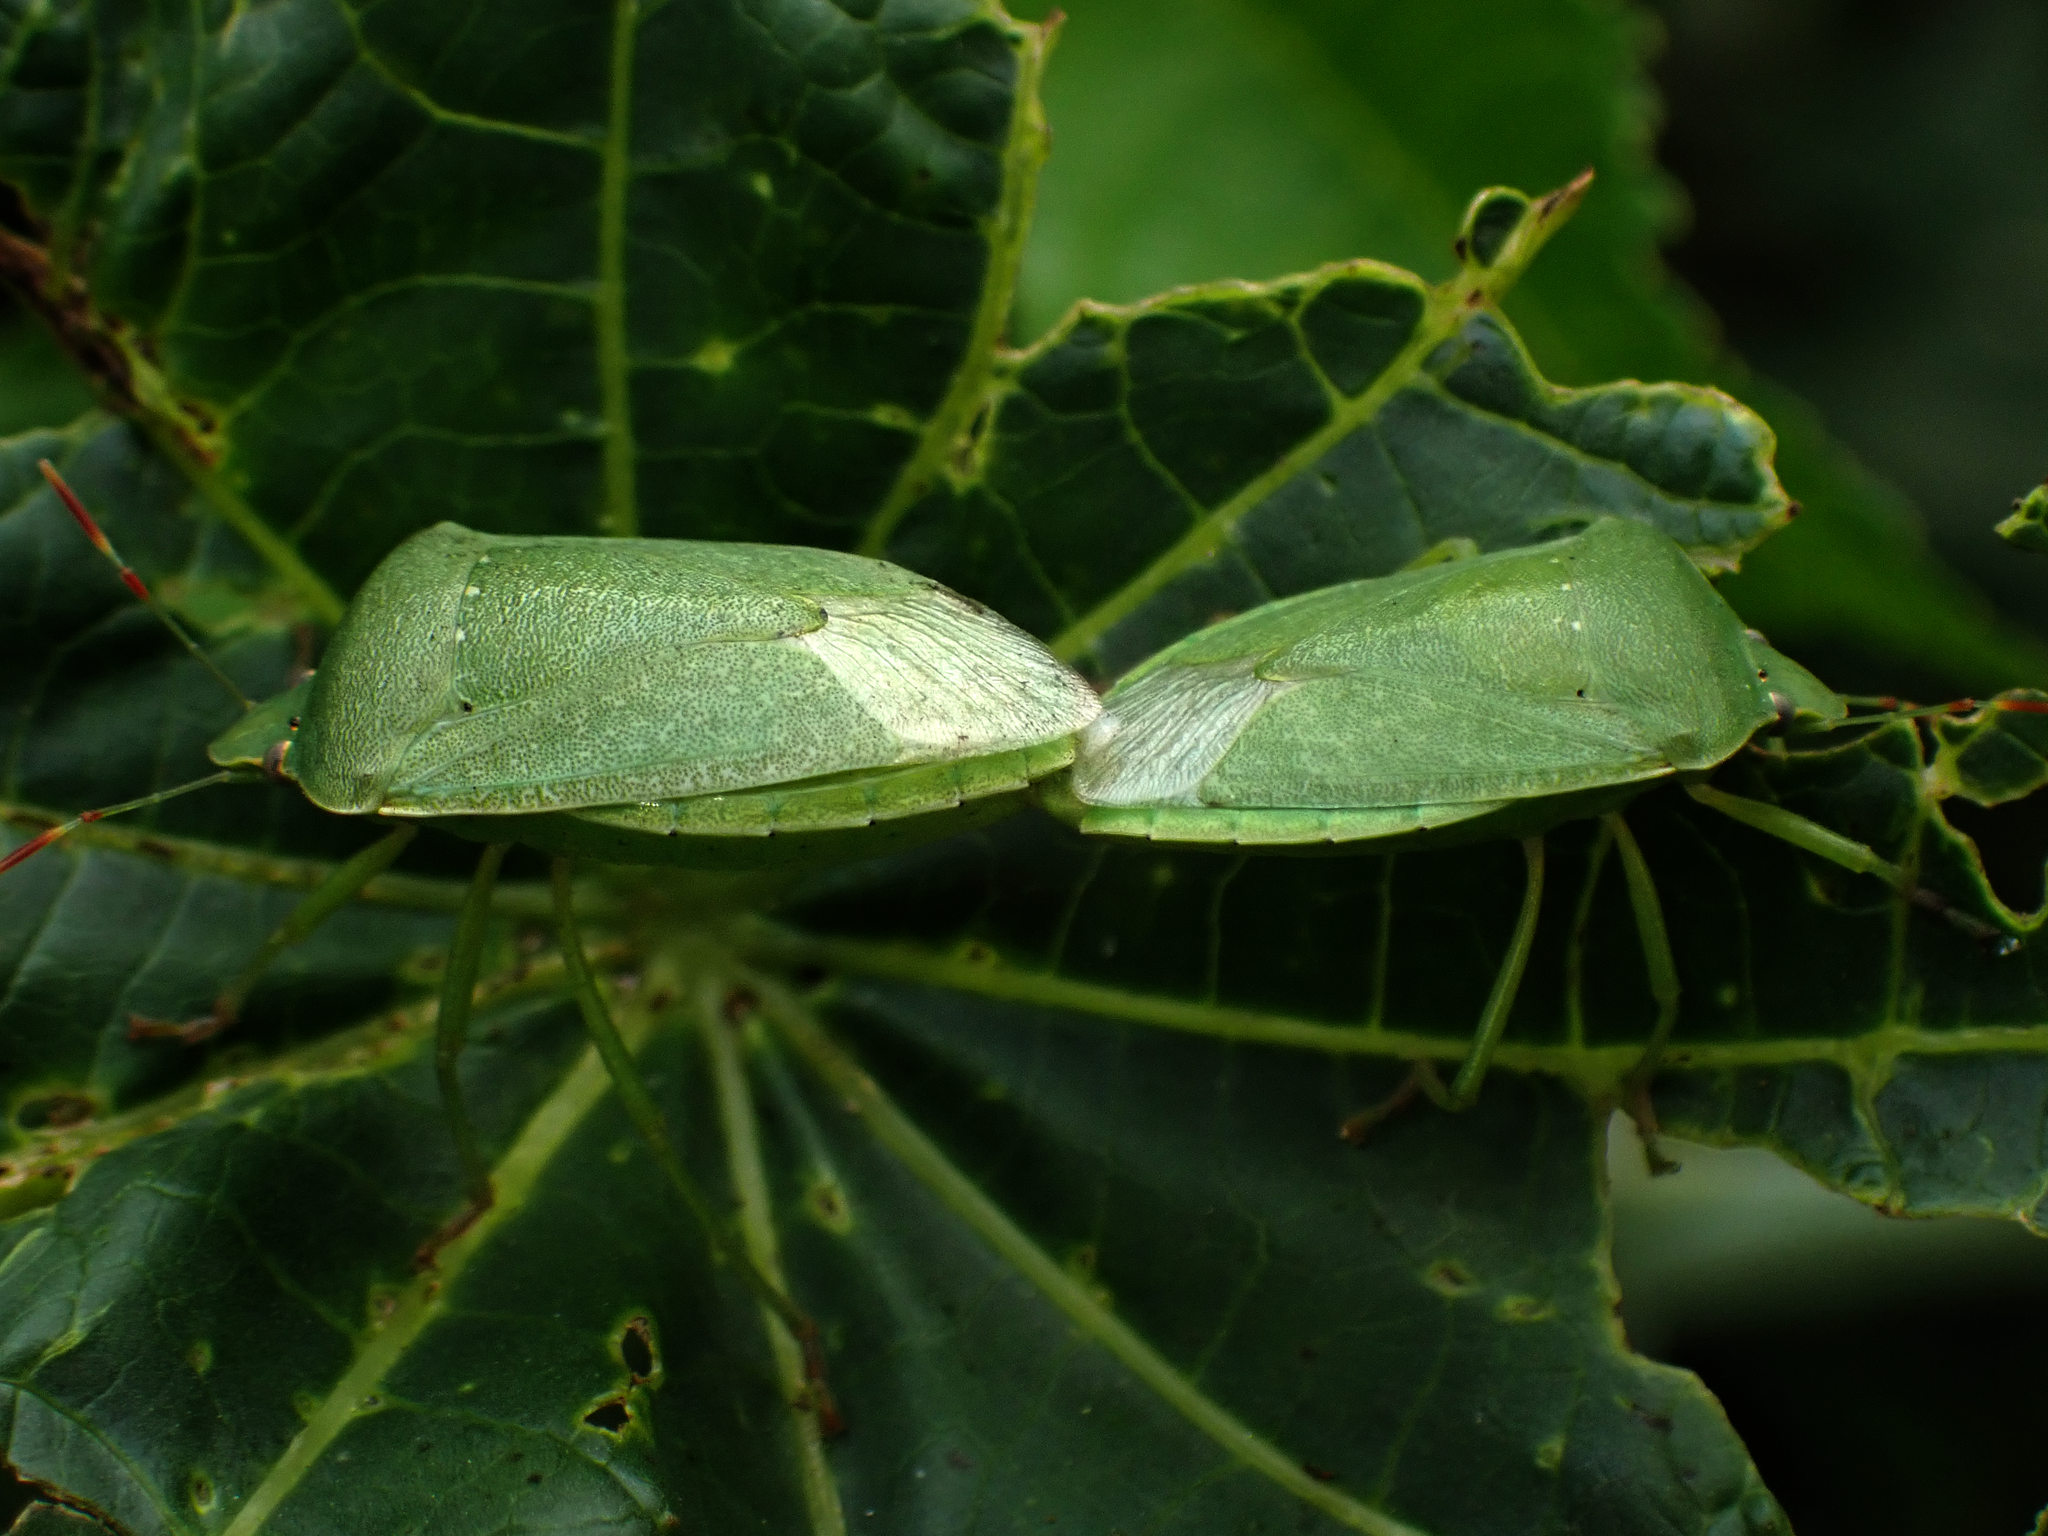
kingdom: Animalia
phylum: Arthropoda
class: Insecta
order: Hemiptera
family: Pentatomidae
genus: Nezara
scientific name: Nezara viridula
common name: Southern green stink bug
